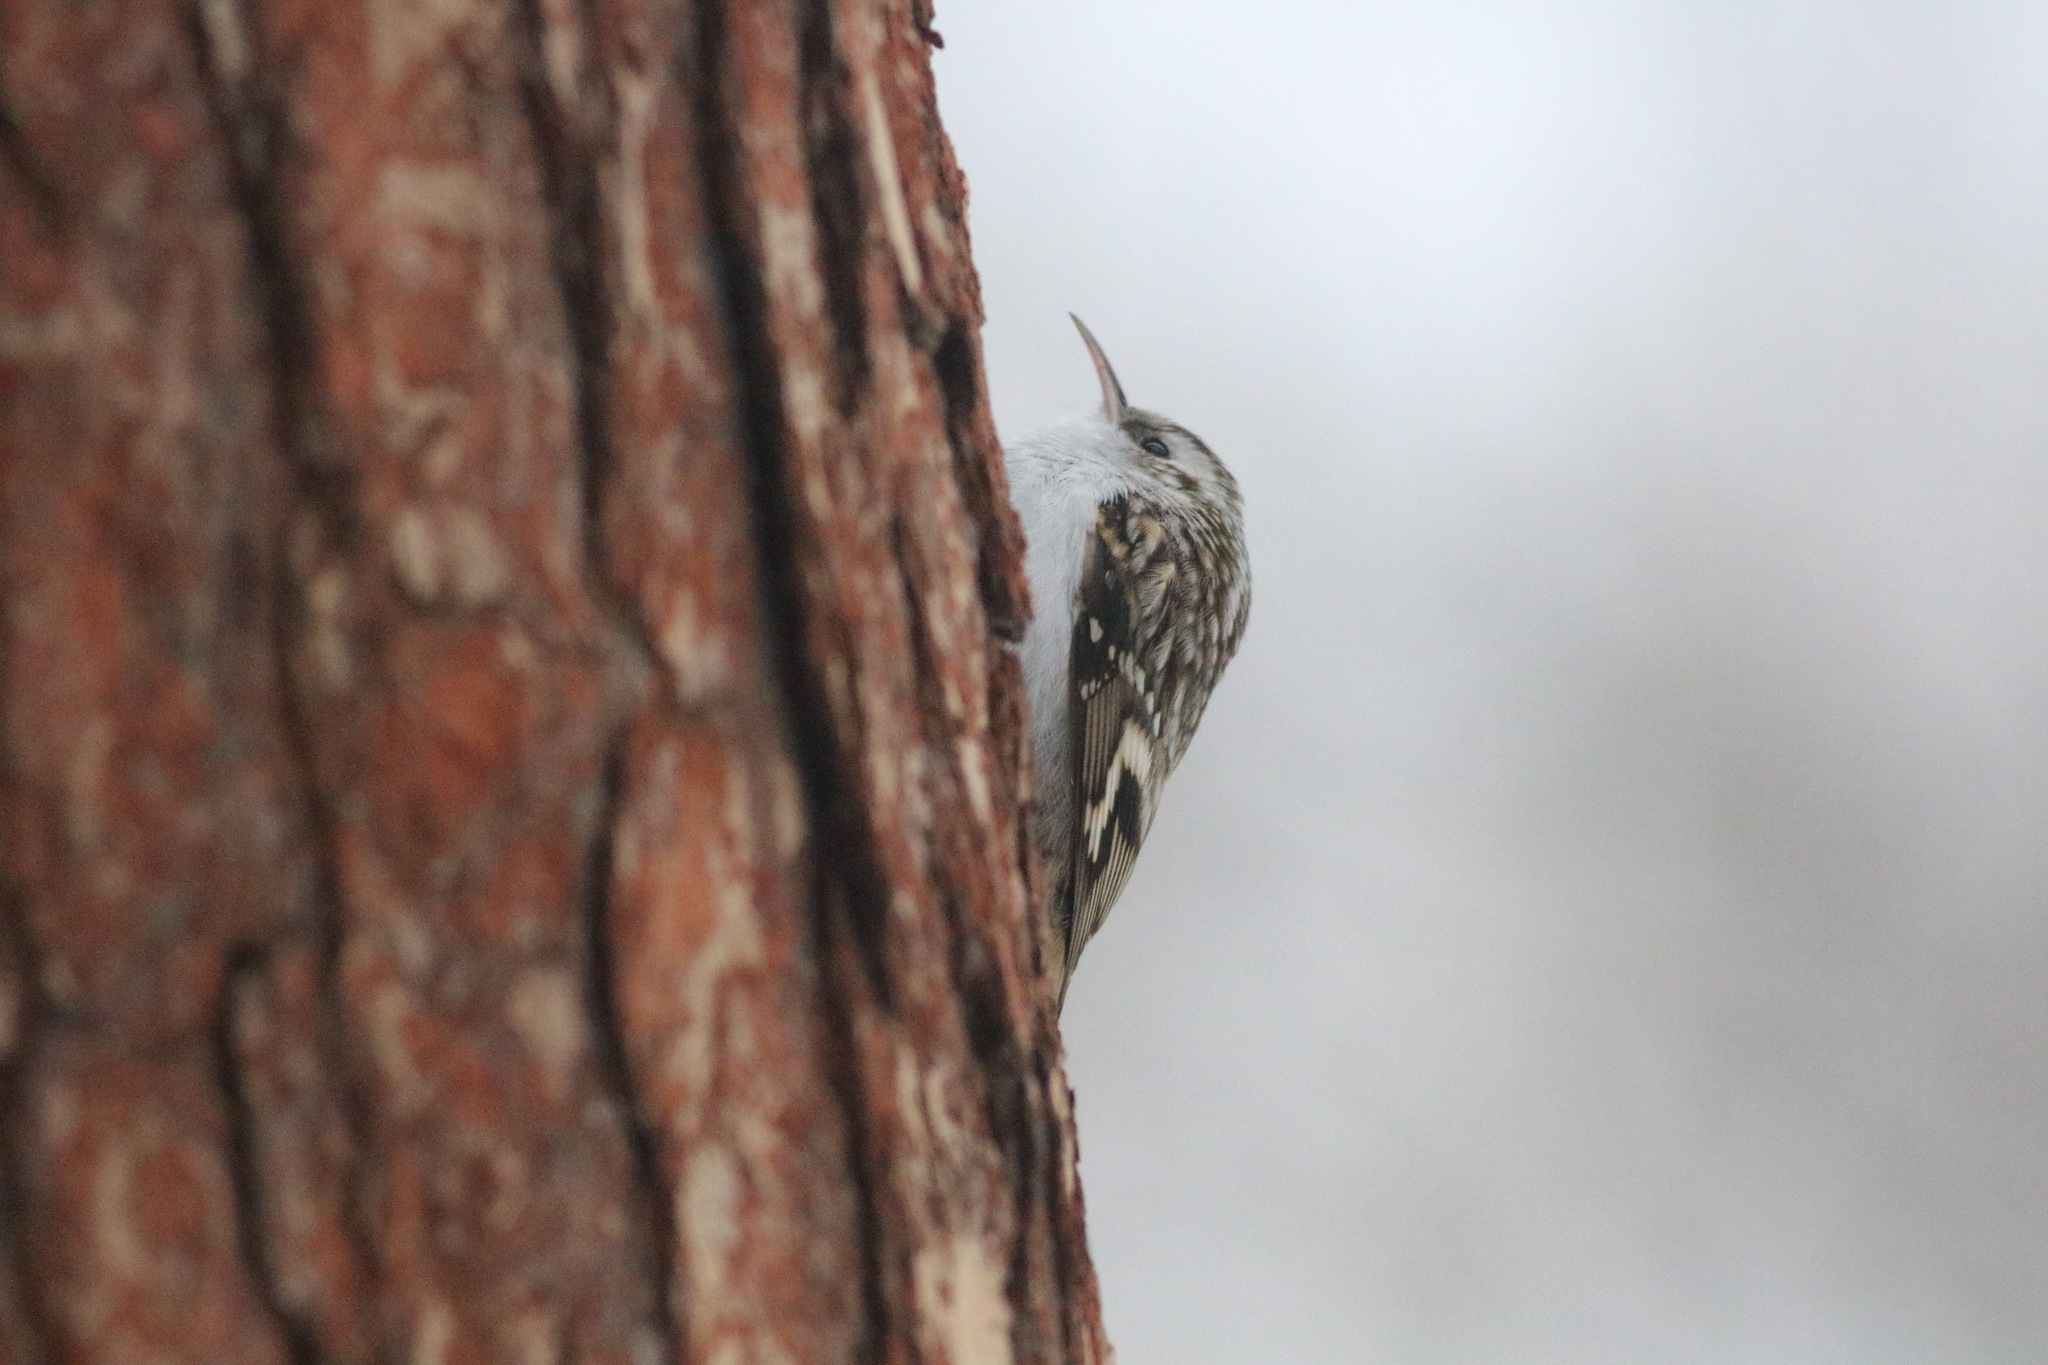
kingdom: Animalia
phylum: Chordata
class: Aves
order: Passeriformes
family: Certhiidae
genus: Certhia
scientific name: Certhia familiaris
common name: Eurasian treecreeper
